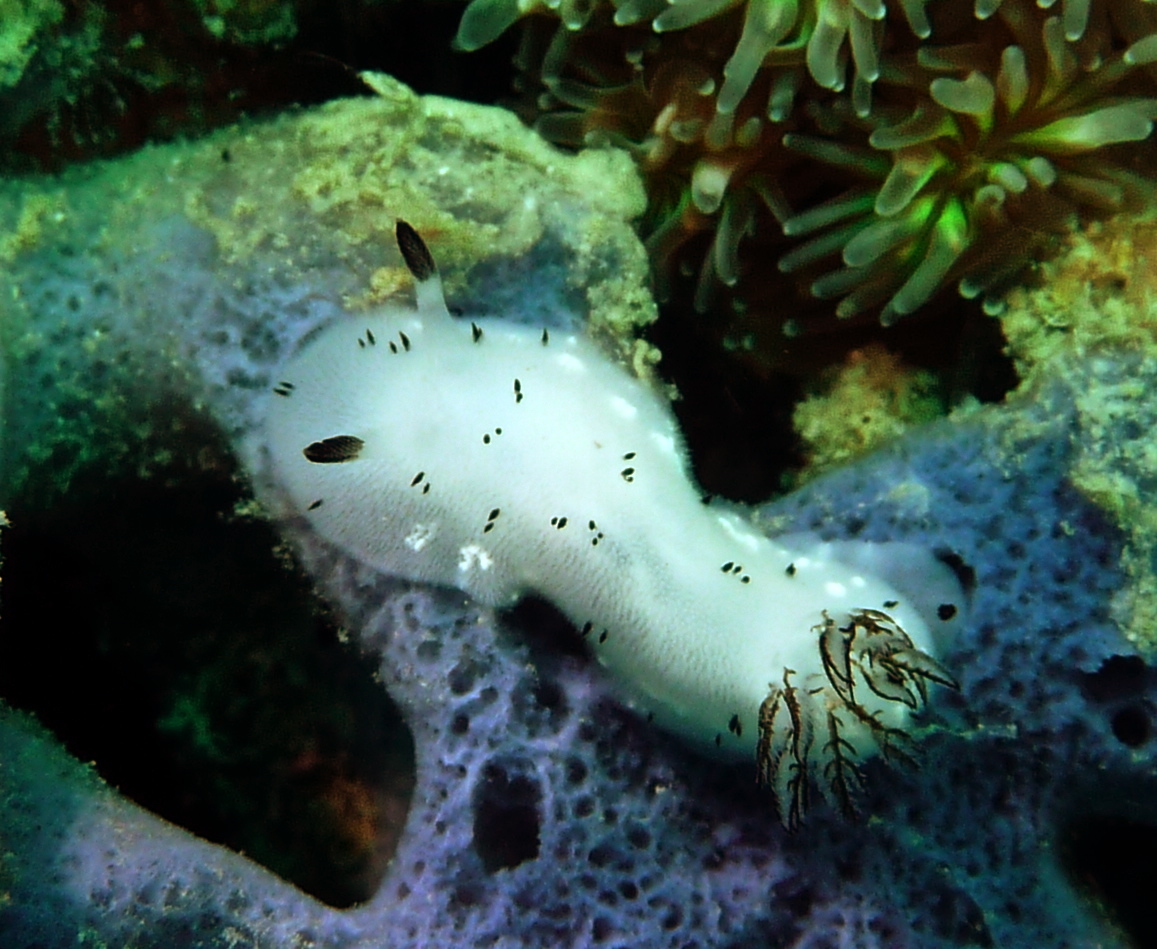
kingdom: Animalia
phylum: Mollusca
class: Gastropoda
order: Nudibranchia
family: Discodorididae
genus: Jorunna
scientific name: Jorunna funebris
